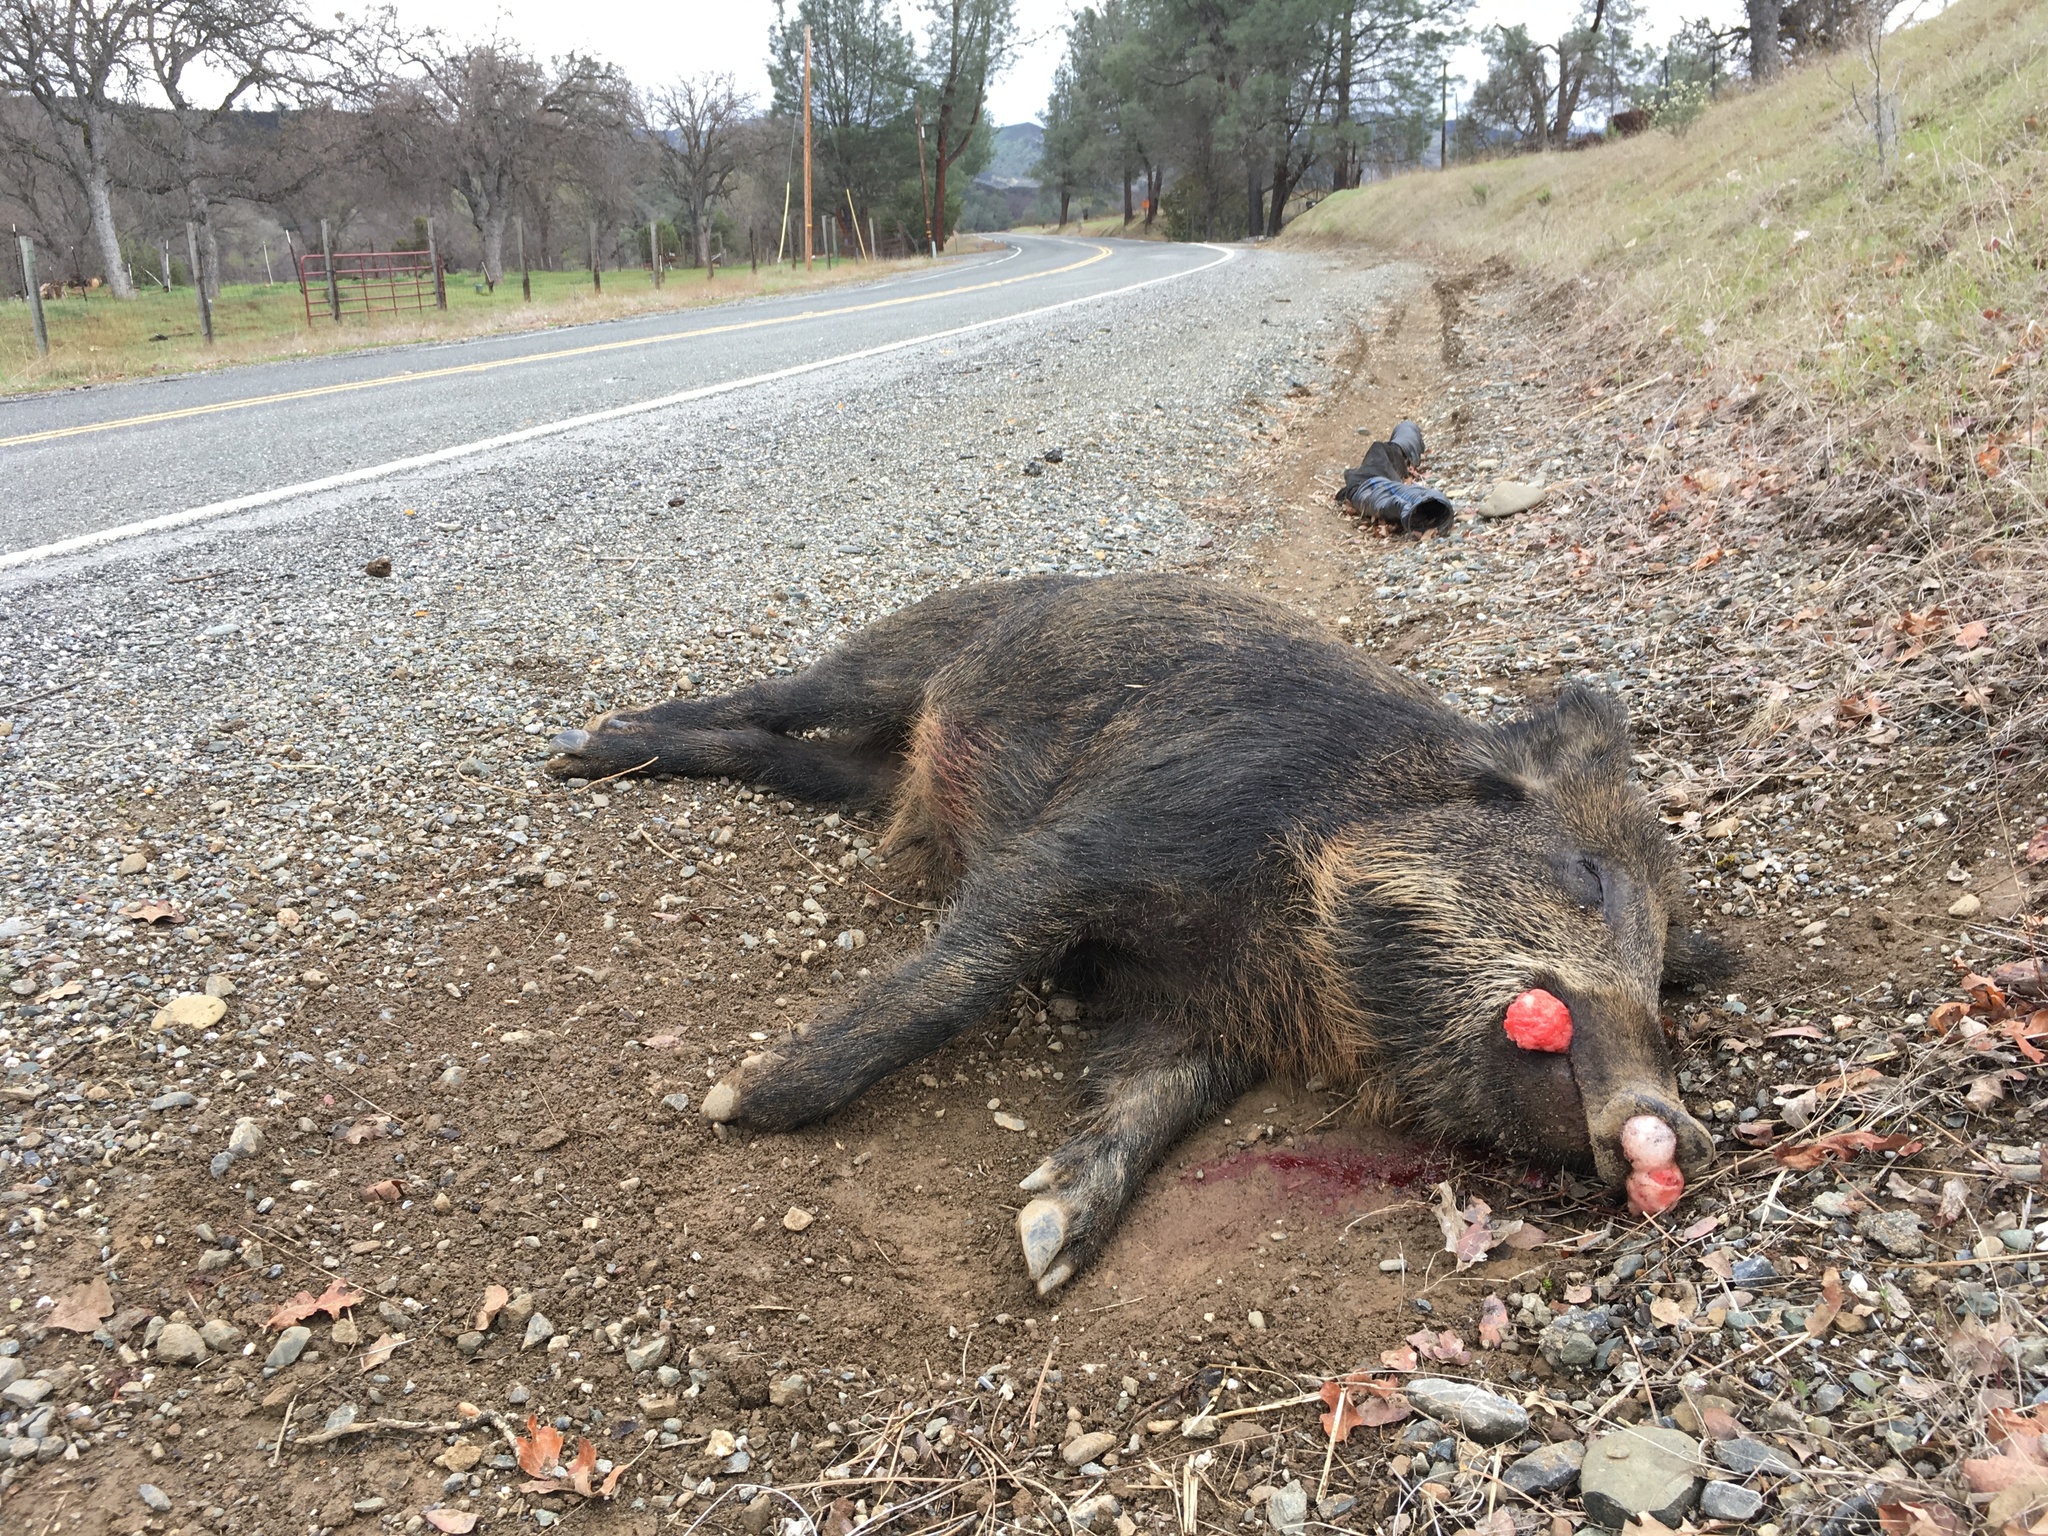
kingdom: Animalia
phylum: Chordata
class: Mammalia
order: Artiodactyla
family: Suidae
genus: Sus
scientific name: Sus scrofa
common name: Wild boar
